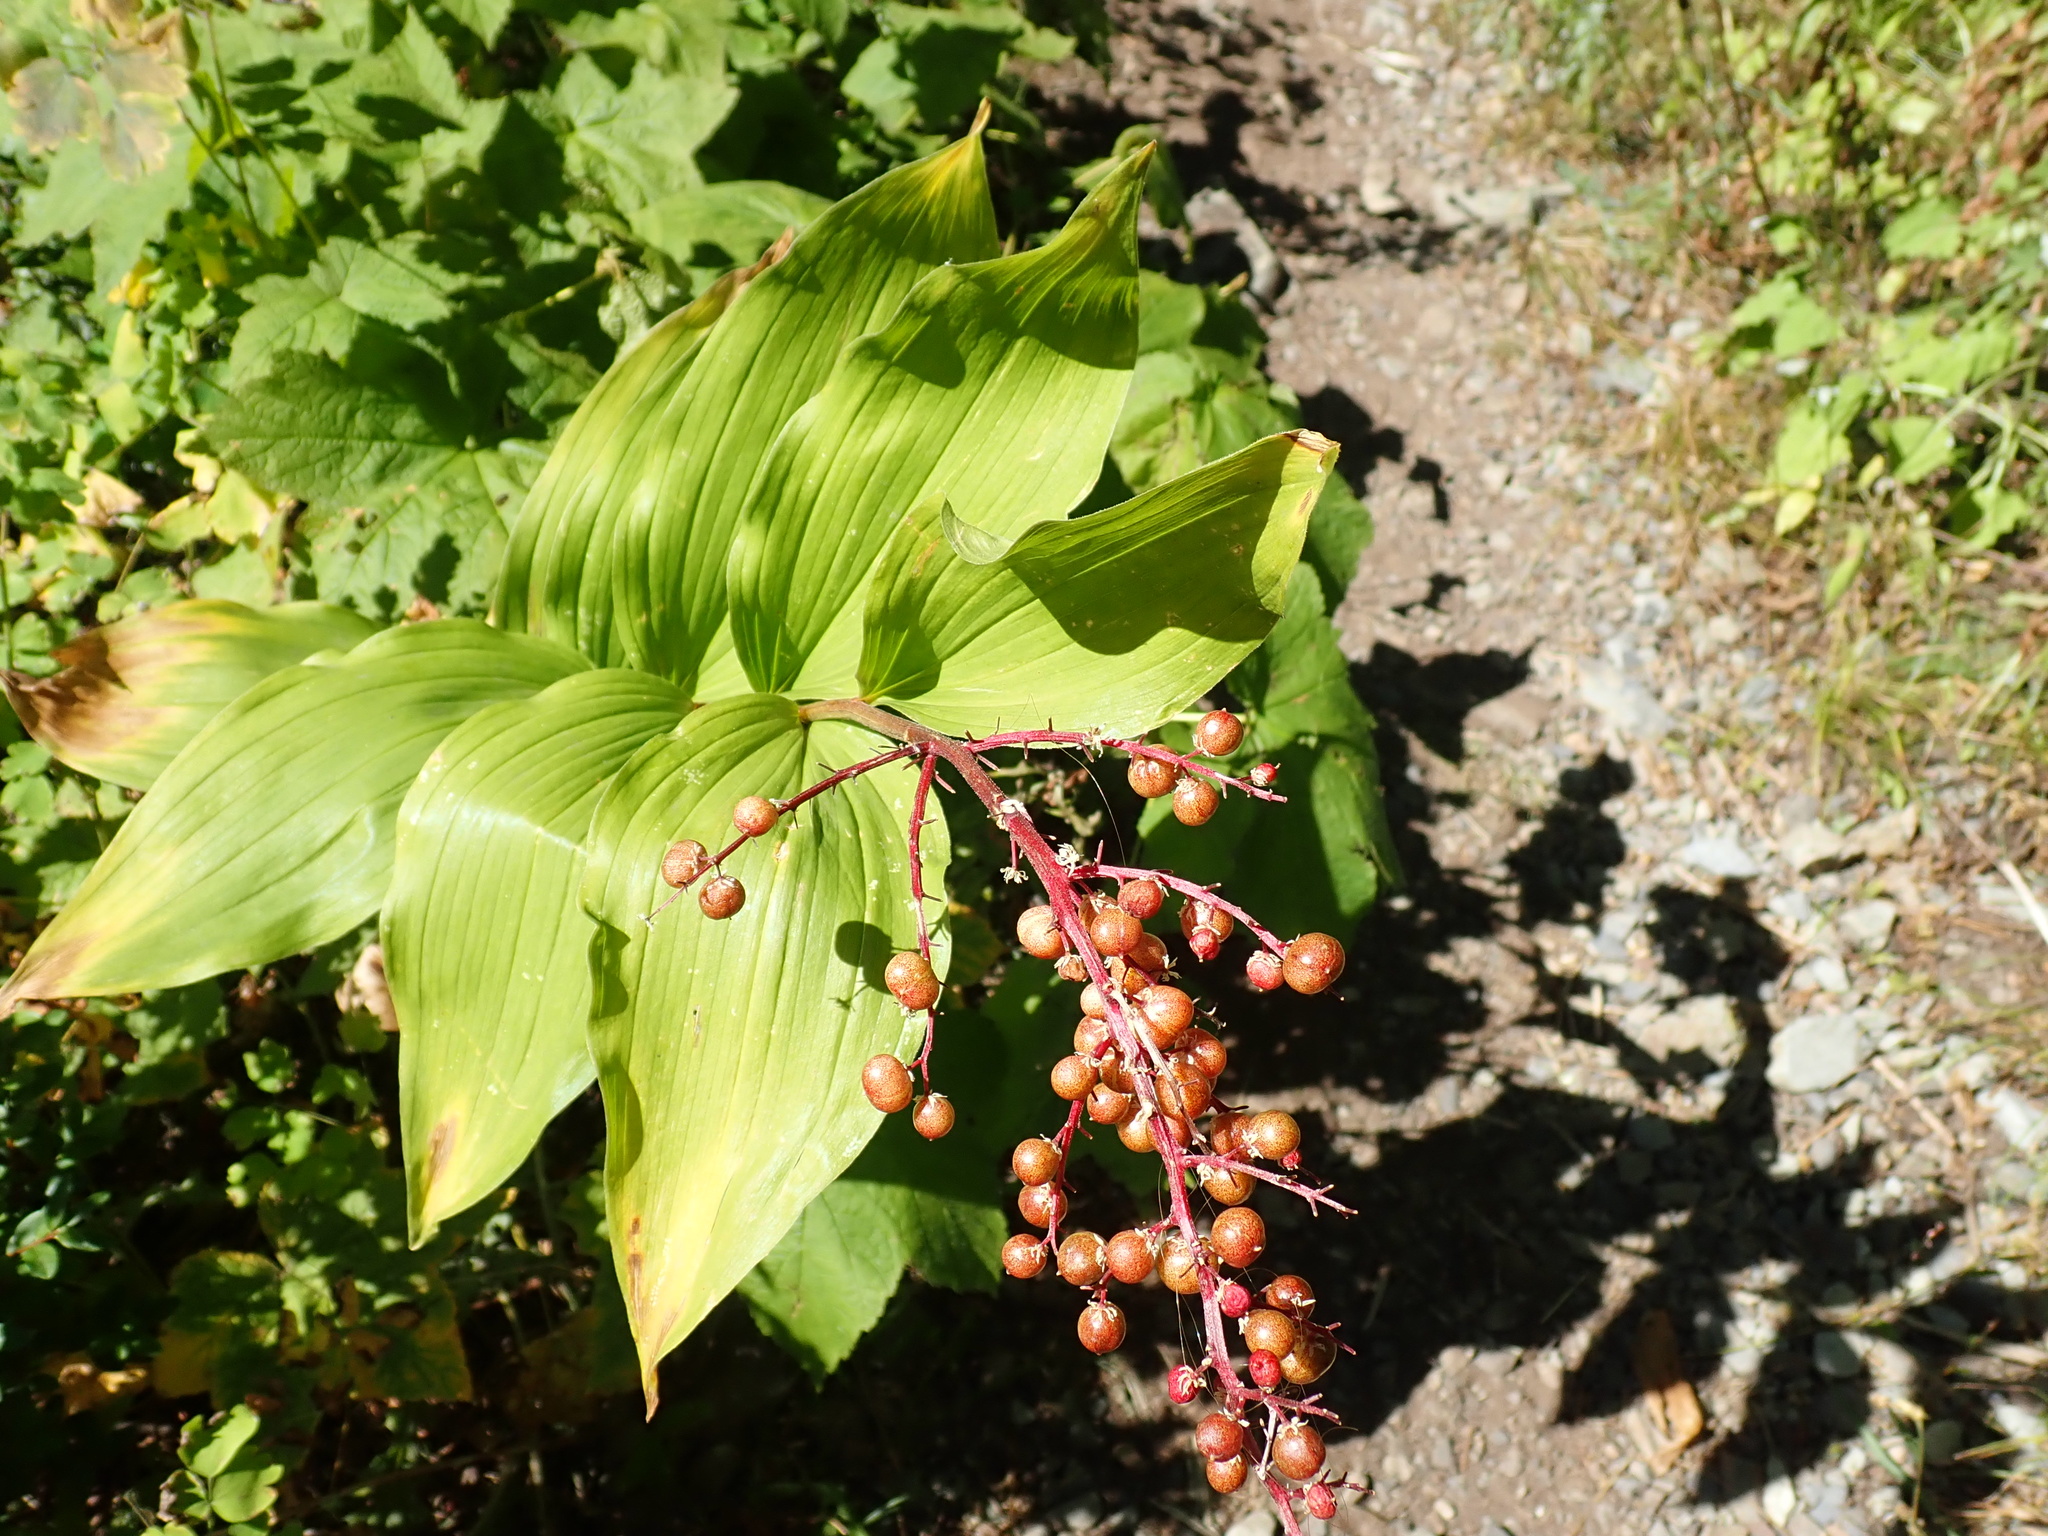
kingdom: Plantae
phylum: Tracheophyta
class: Liliopsida
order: Asparagales
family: Asparagaceae
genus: Maianthemum
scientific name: Maianthemum racemosum
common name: False spikenard
